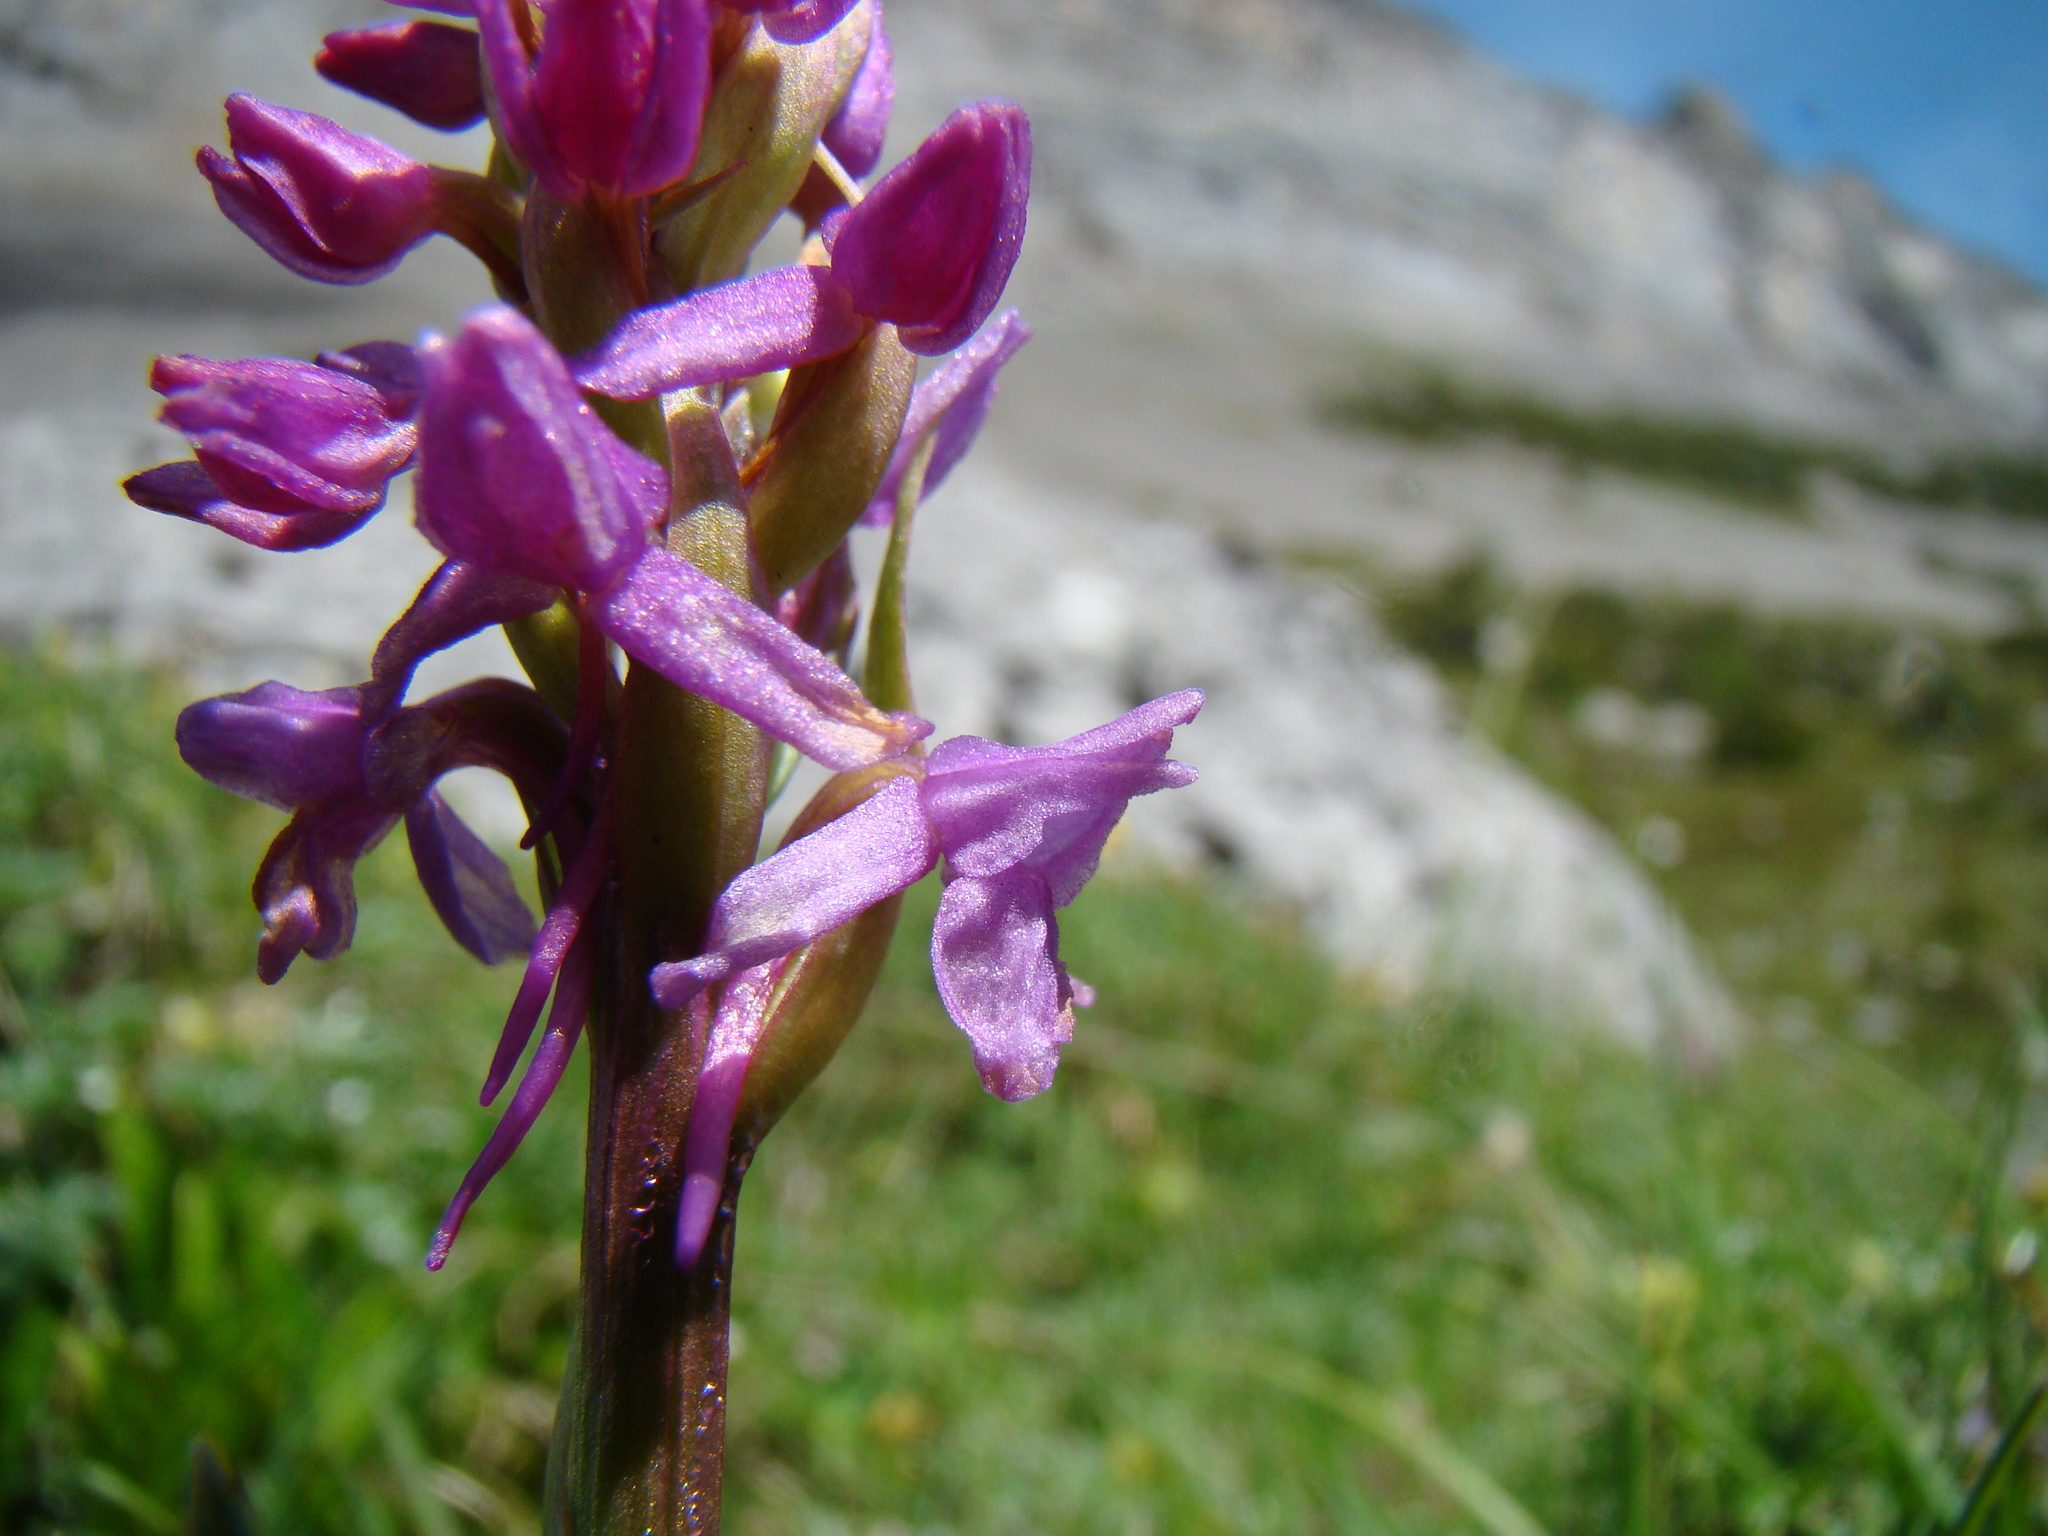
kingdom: Plantae
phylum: Tracheophyta
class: Liliopsida
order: Asparagales
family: Orchidaceae
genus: Gymnadenia
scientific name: Gymnadenia conopsea
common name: Fragrant orchid
